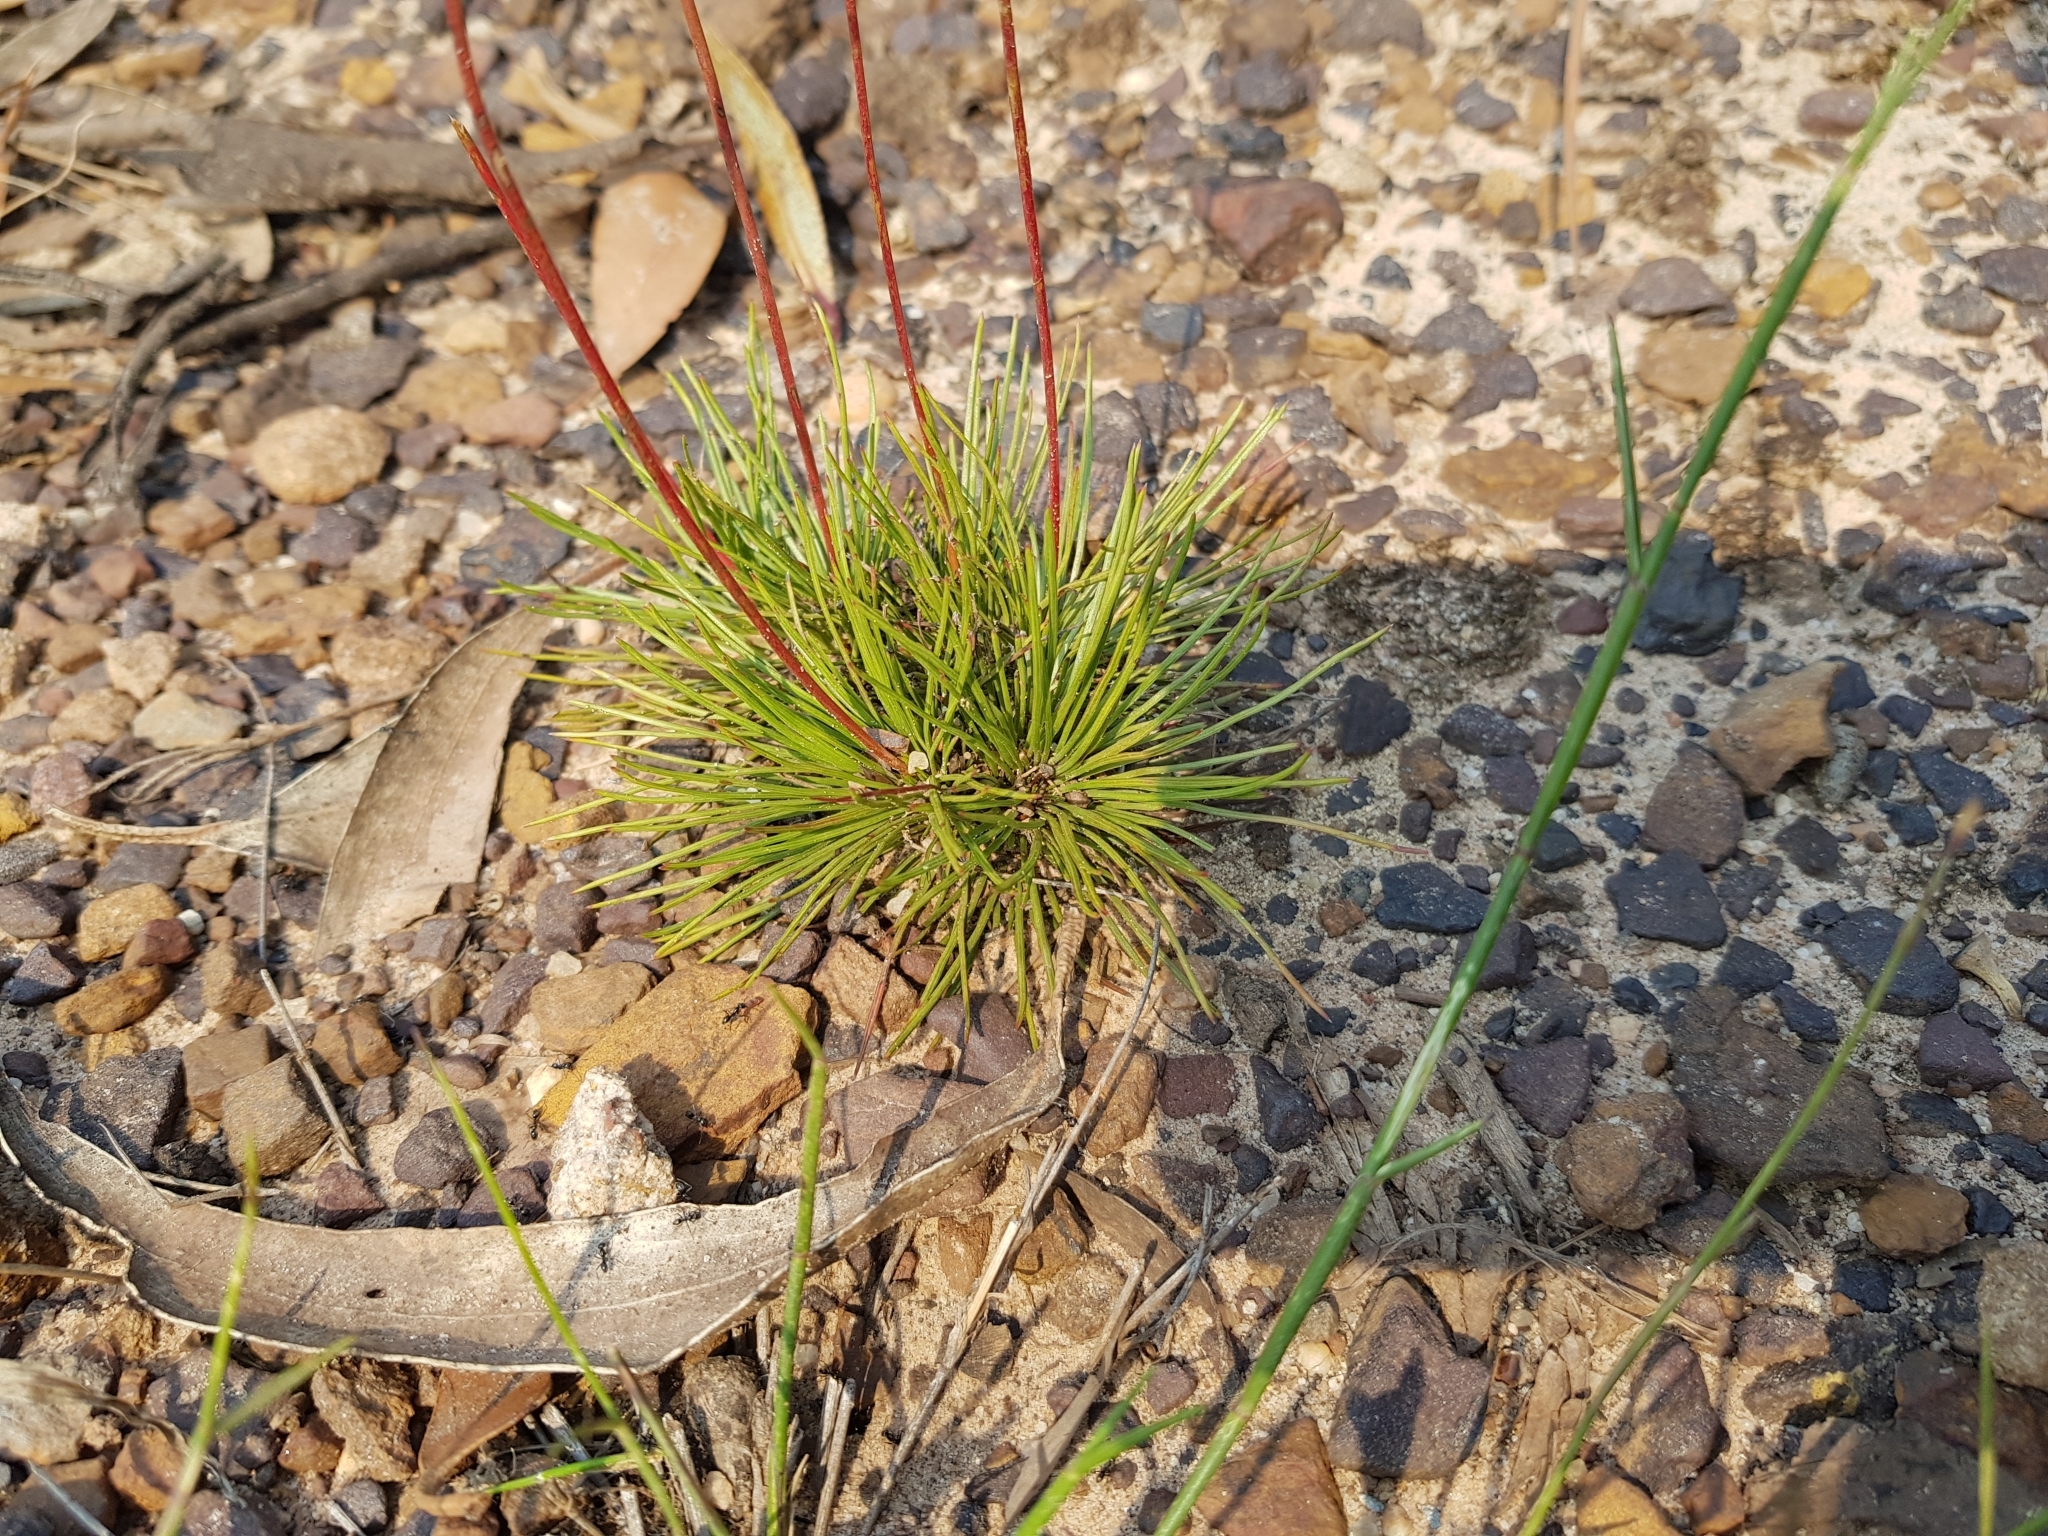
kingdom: Plantae
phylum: Tracheophyta
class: Magnoliopsida
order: Asterales
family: Stylidiaceae
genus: Stylidium
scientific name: Stylidium lineare
